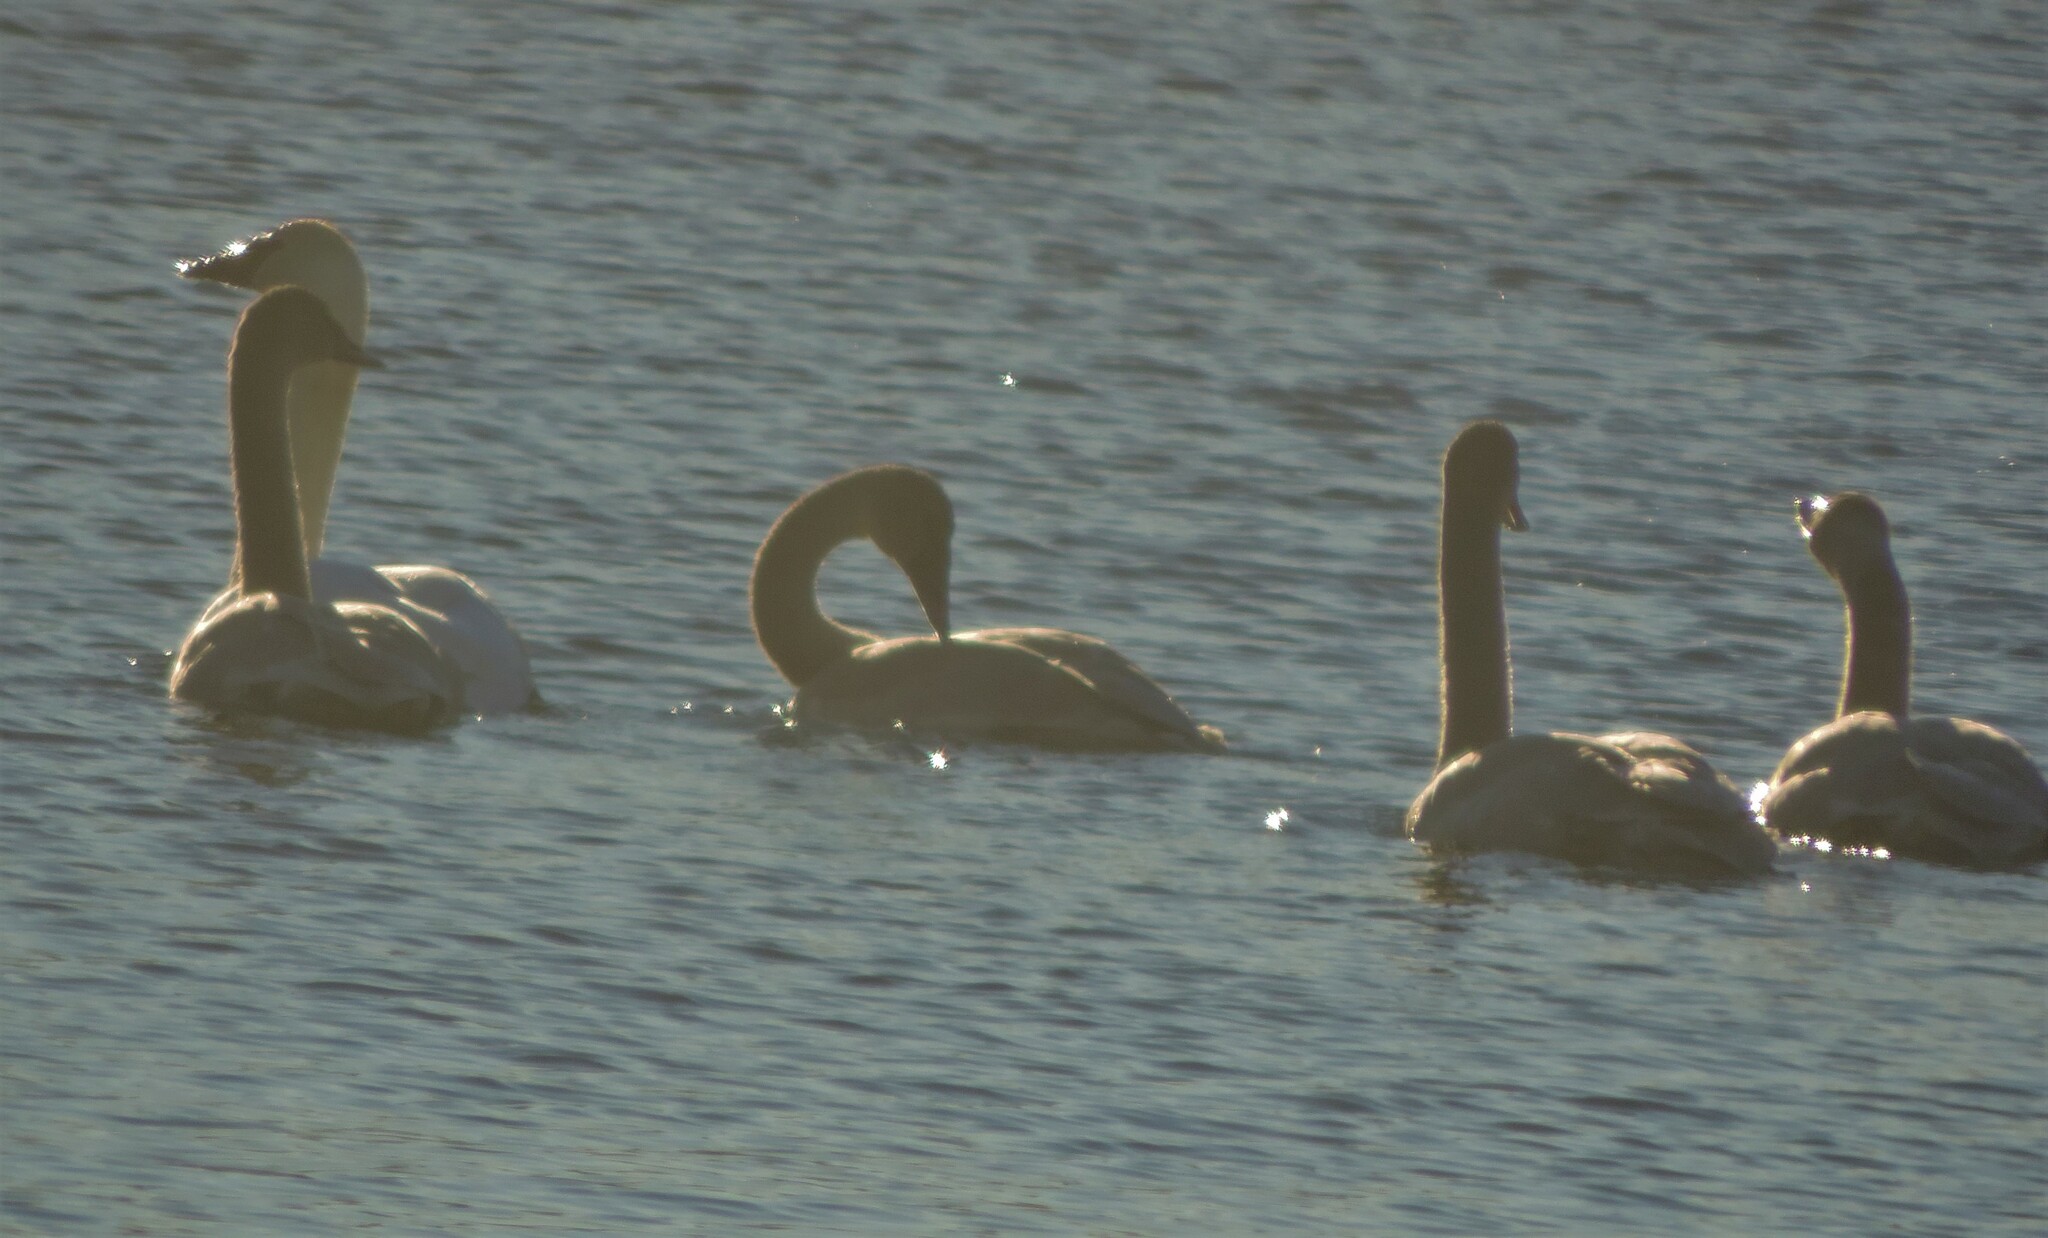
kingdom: Animalia
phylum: Chordata
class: Aves
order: Anseriformes
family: Anatidae
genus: Cygnus
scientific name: Cygnus buccinator
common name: Trumpeter swan
